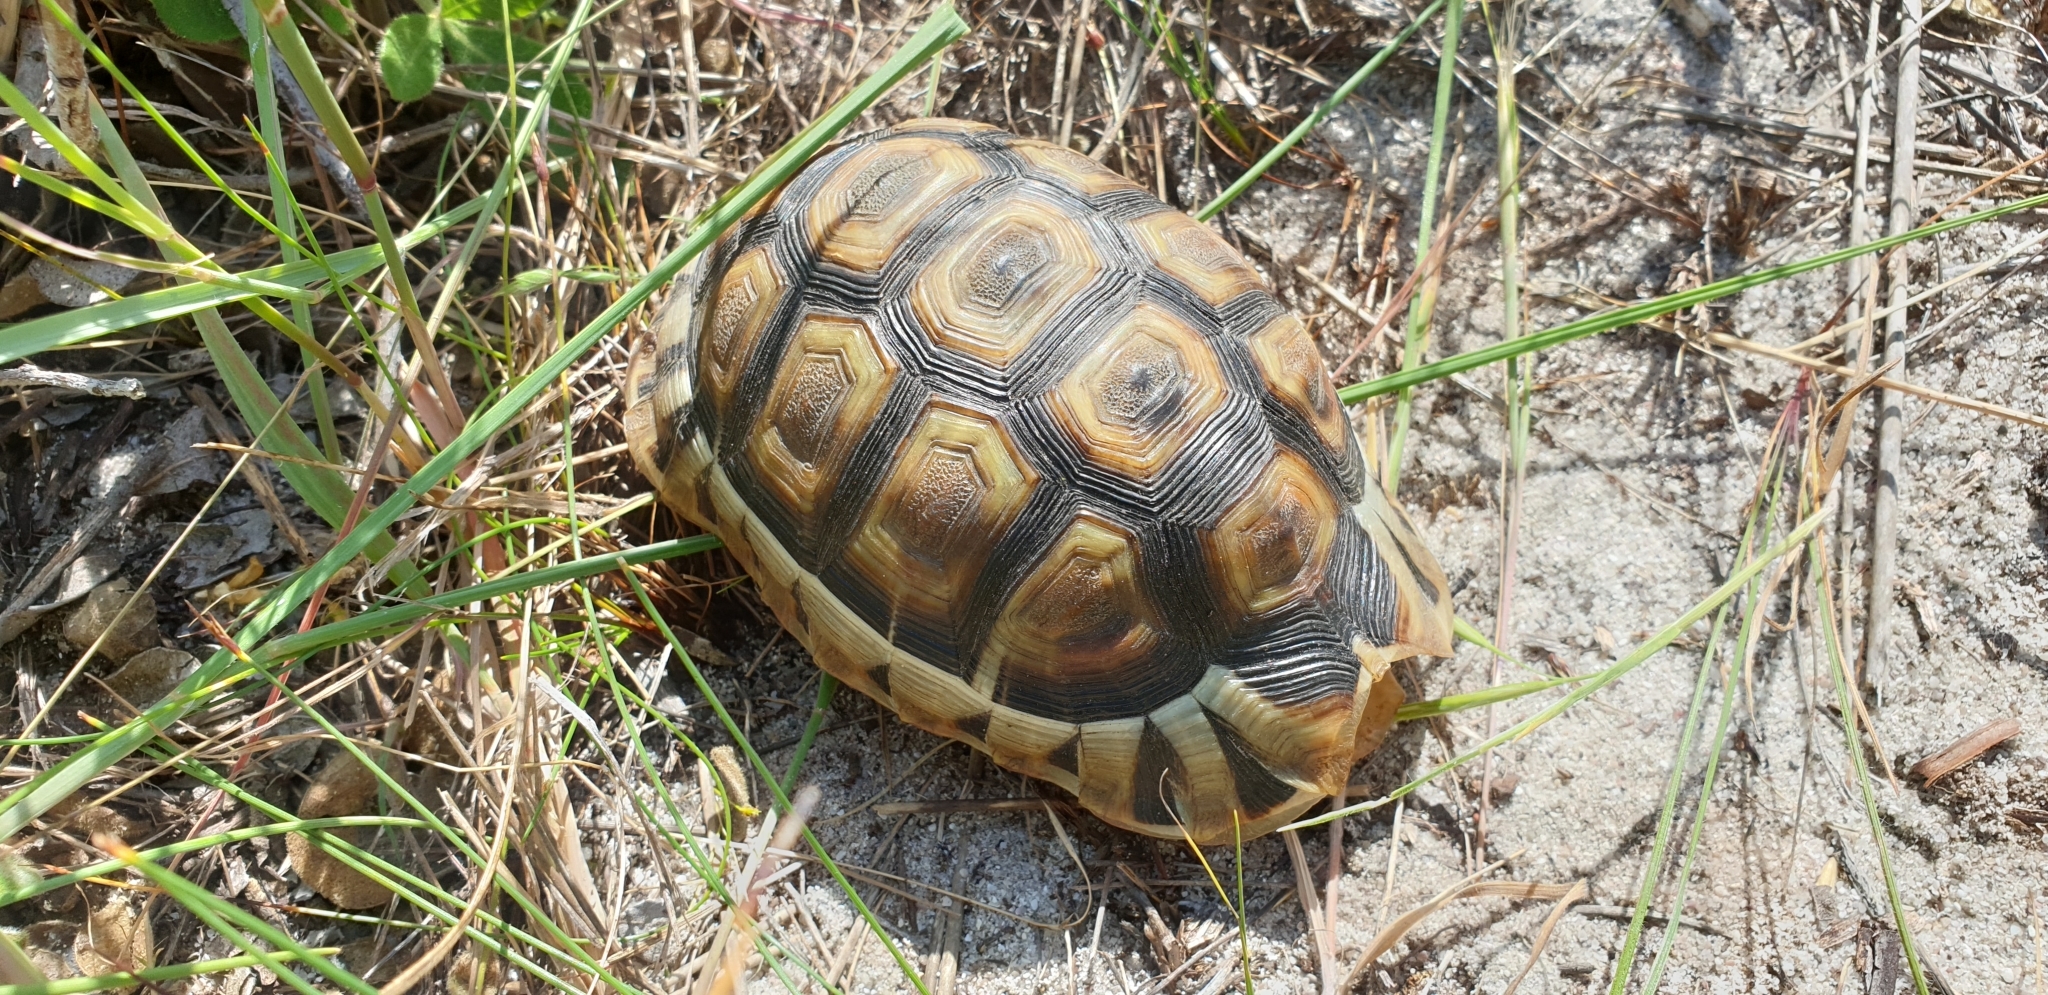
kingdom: Animalia
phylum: Chordata
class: Testudines
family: Testudinidae
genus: Chersina
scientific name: Chersina angulata
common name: South african bowsprit tortoise
